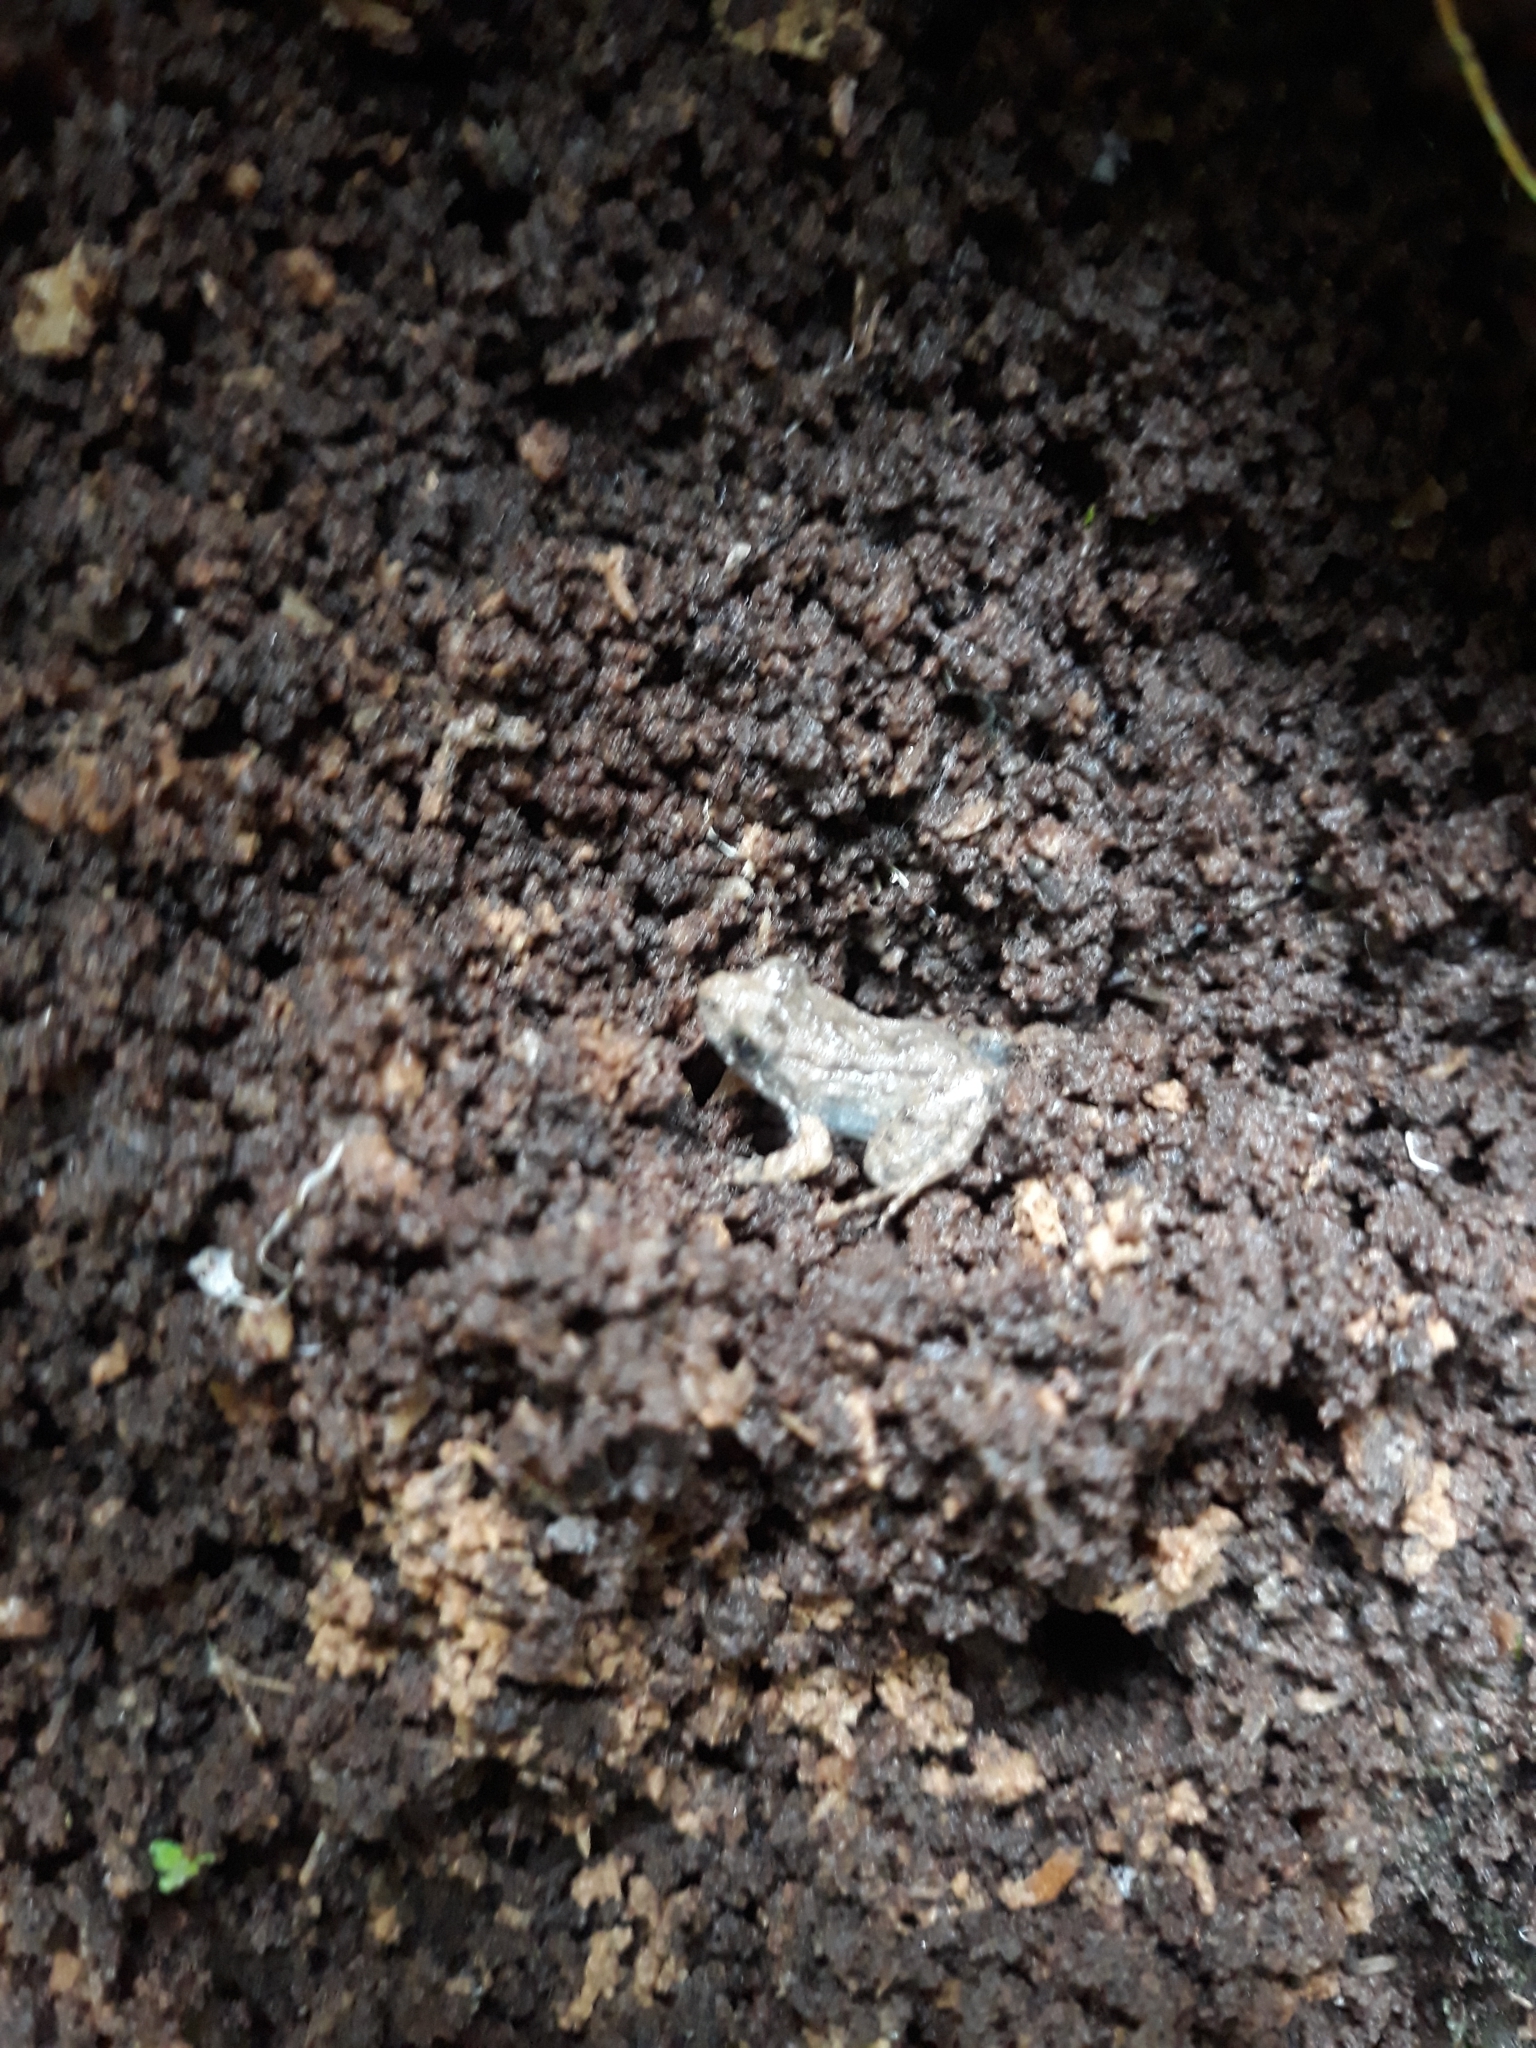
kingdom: Animalia
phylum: Chordata
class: Amphibia
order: Anura
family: Leptodactylidae
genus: Leptodactylus
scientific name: Leptodactylus petersii
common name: Peters' thin-toed frog
